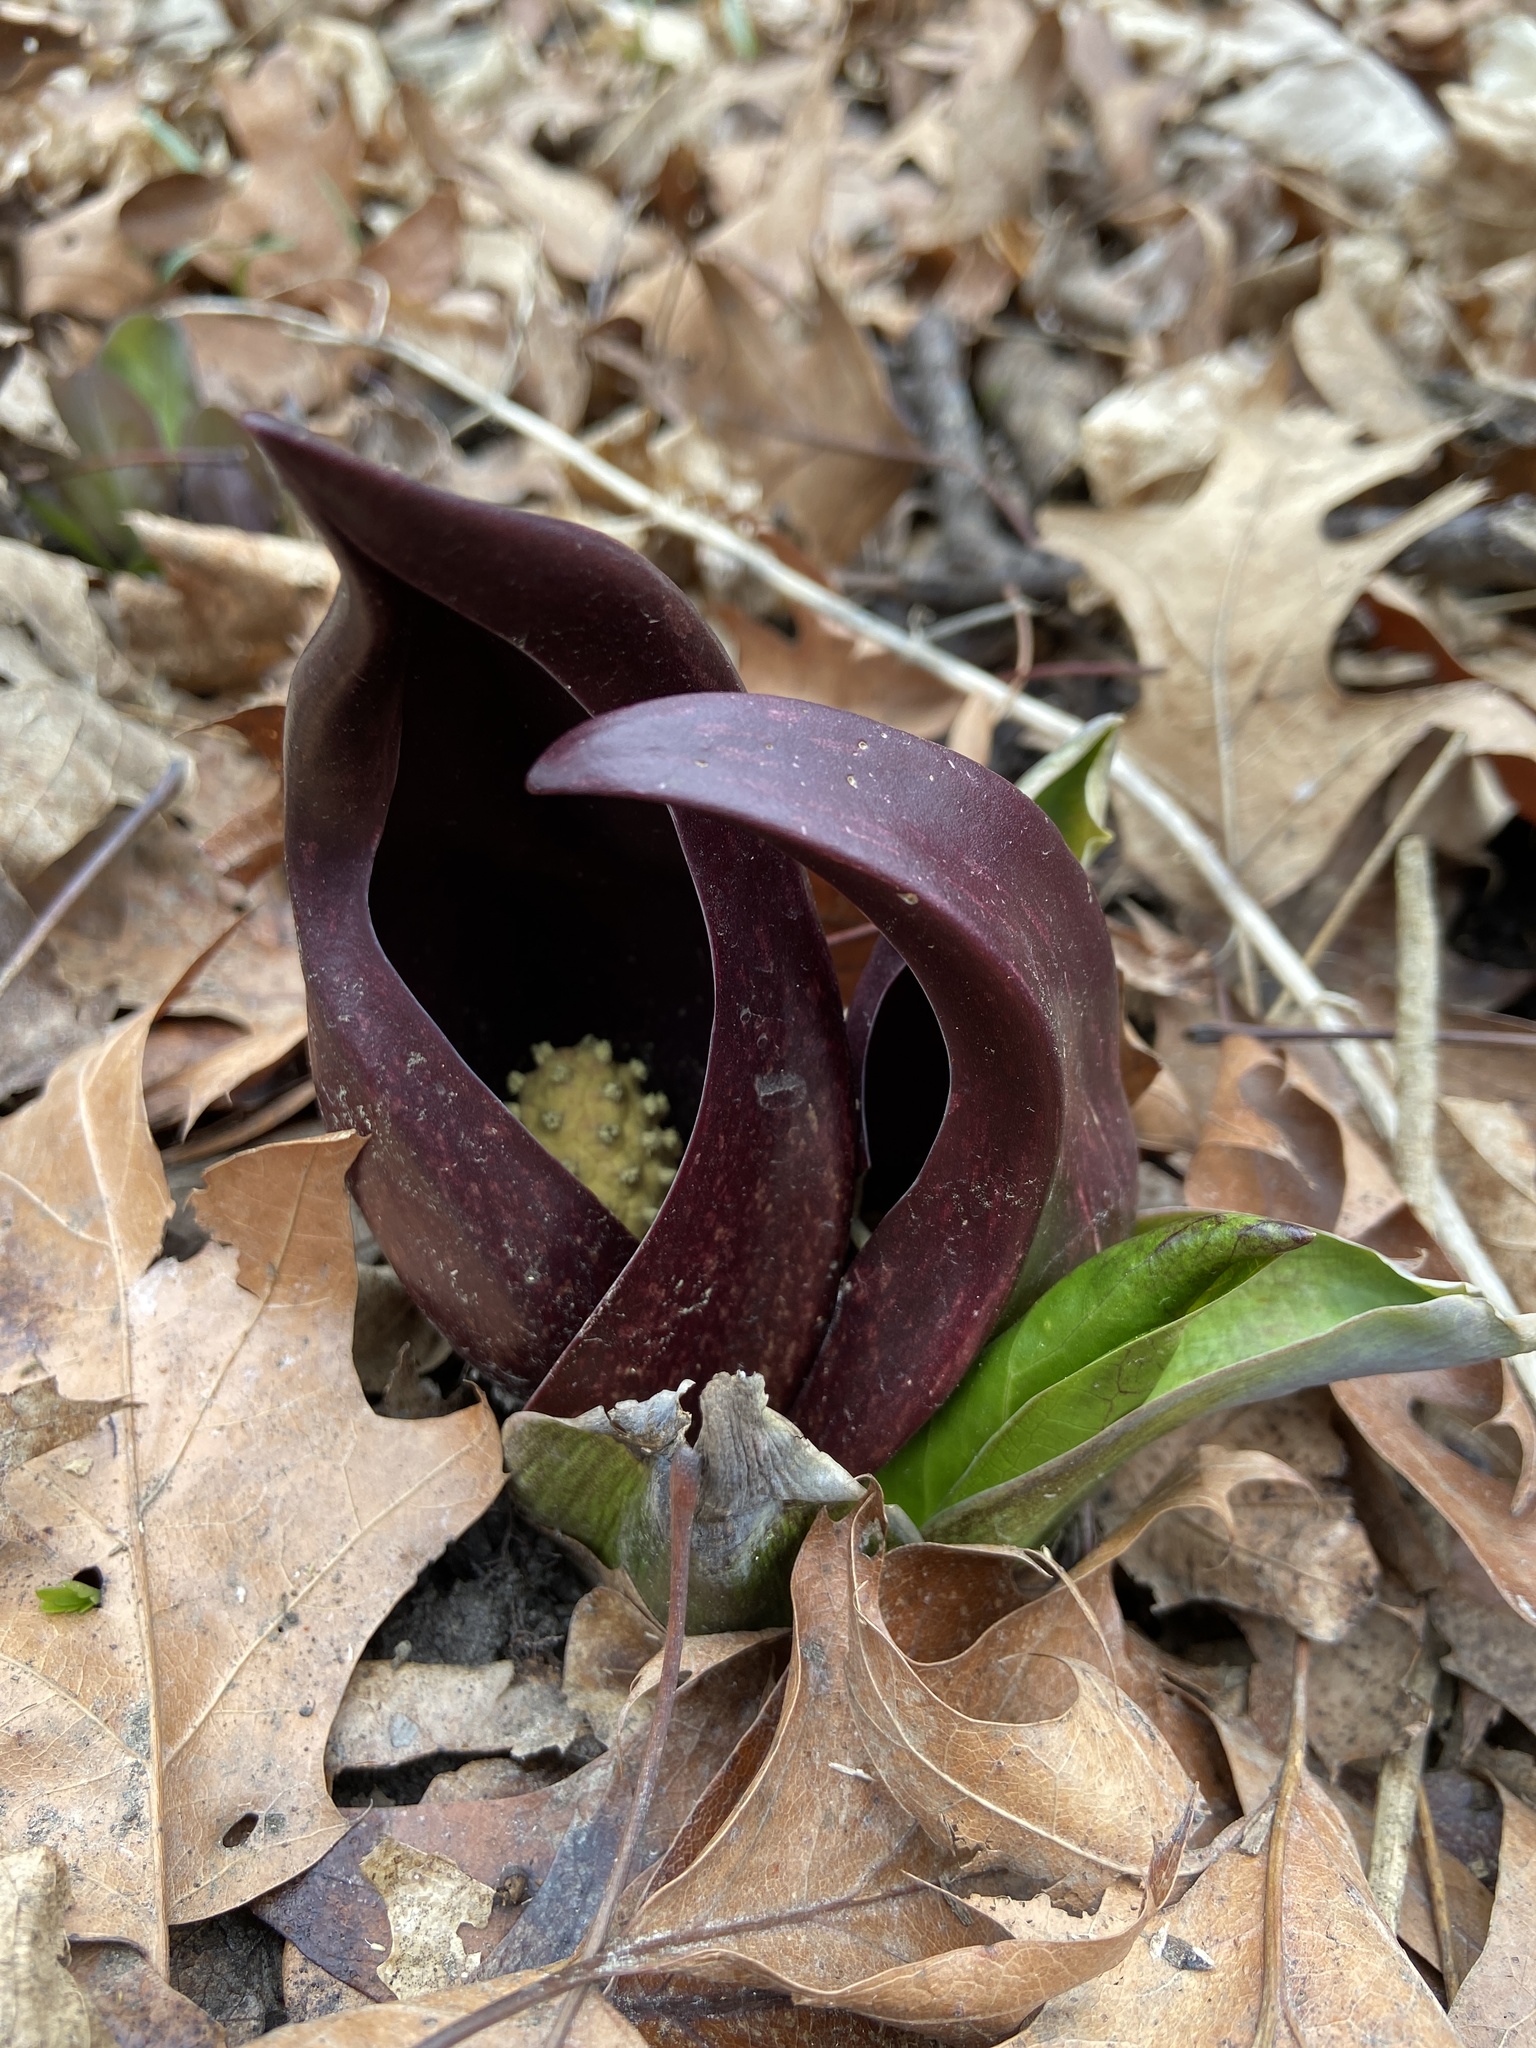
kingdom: Plantae
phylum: Tracheophyta
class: Liliopsida
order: Alismatales
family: Araceae
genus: Symplocarpus
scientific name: Symplocarpus foetidus
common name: Eastern skunk cabbage
